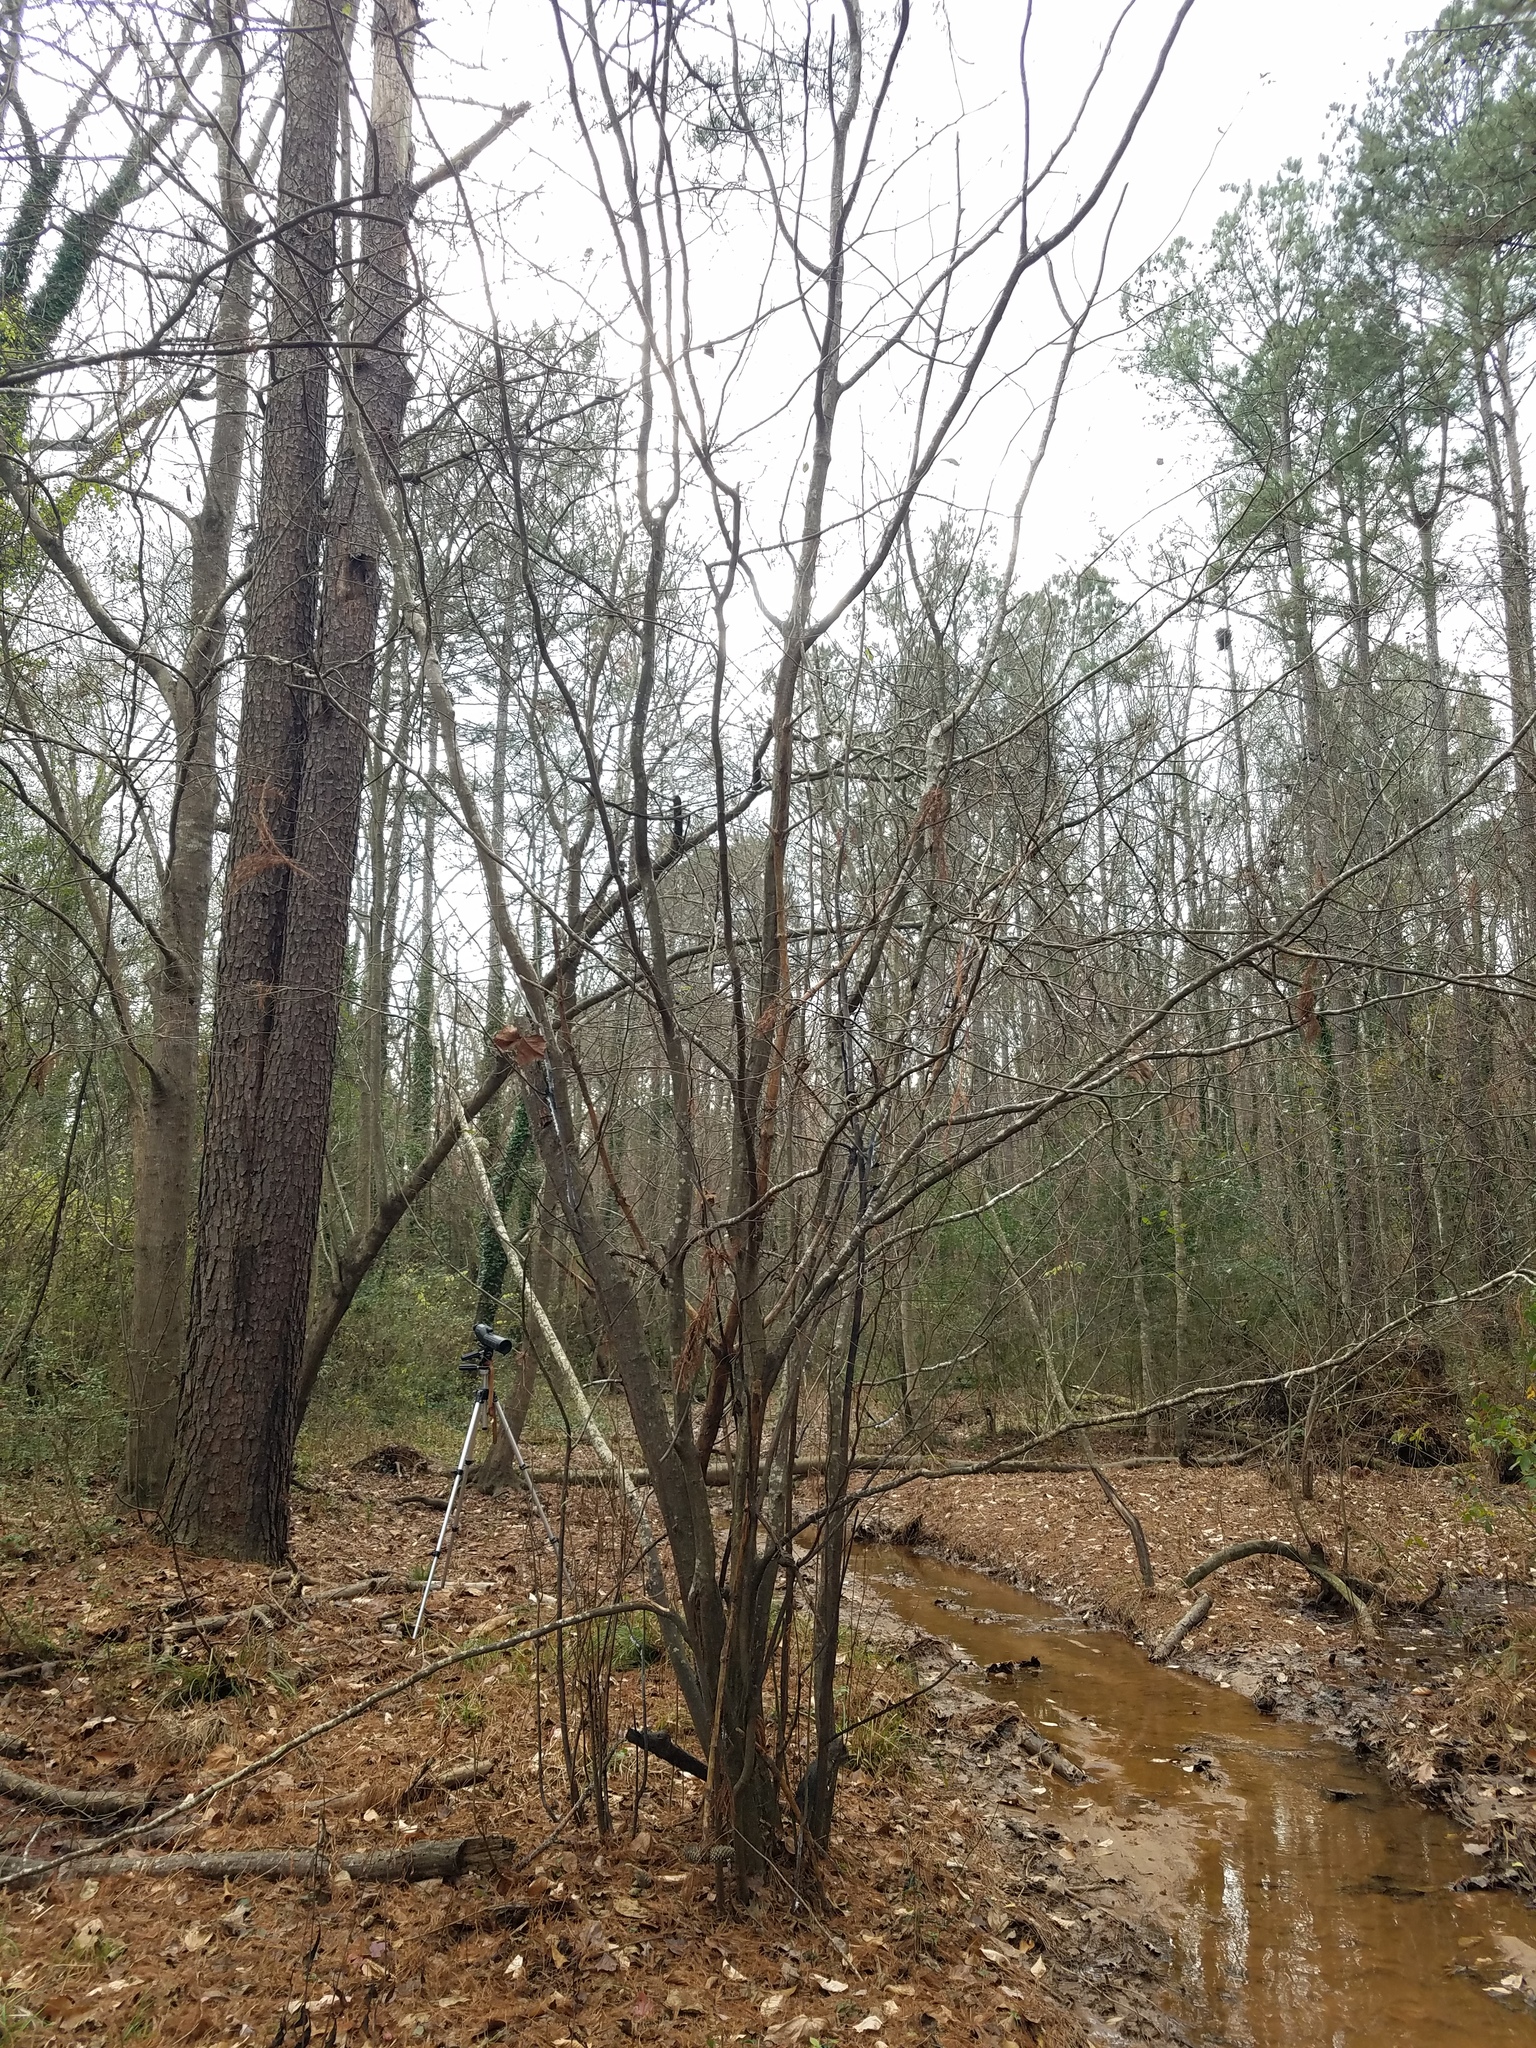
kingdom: Plantae
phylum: Tracheophyta
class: Magnoliopsida
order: Fagales
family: Betulaceae
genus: Alnus
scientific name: Alnus serrulata
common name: Hazel alder
